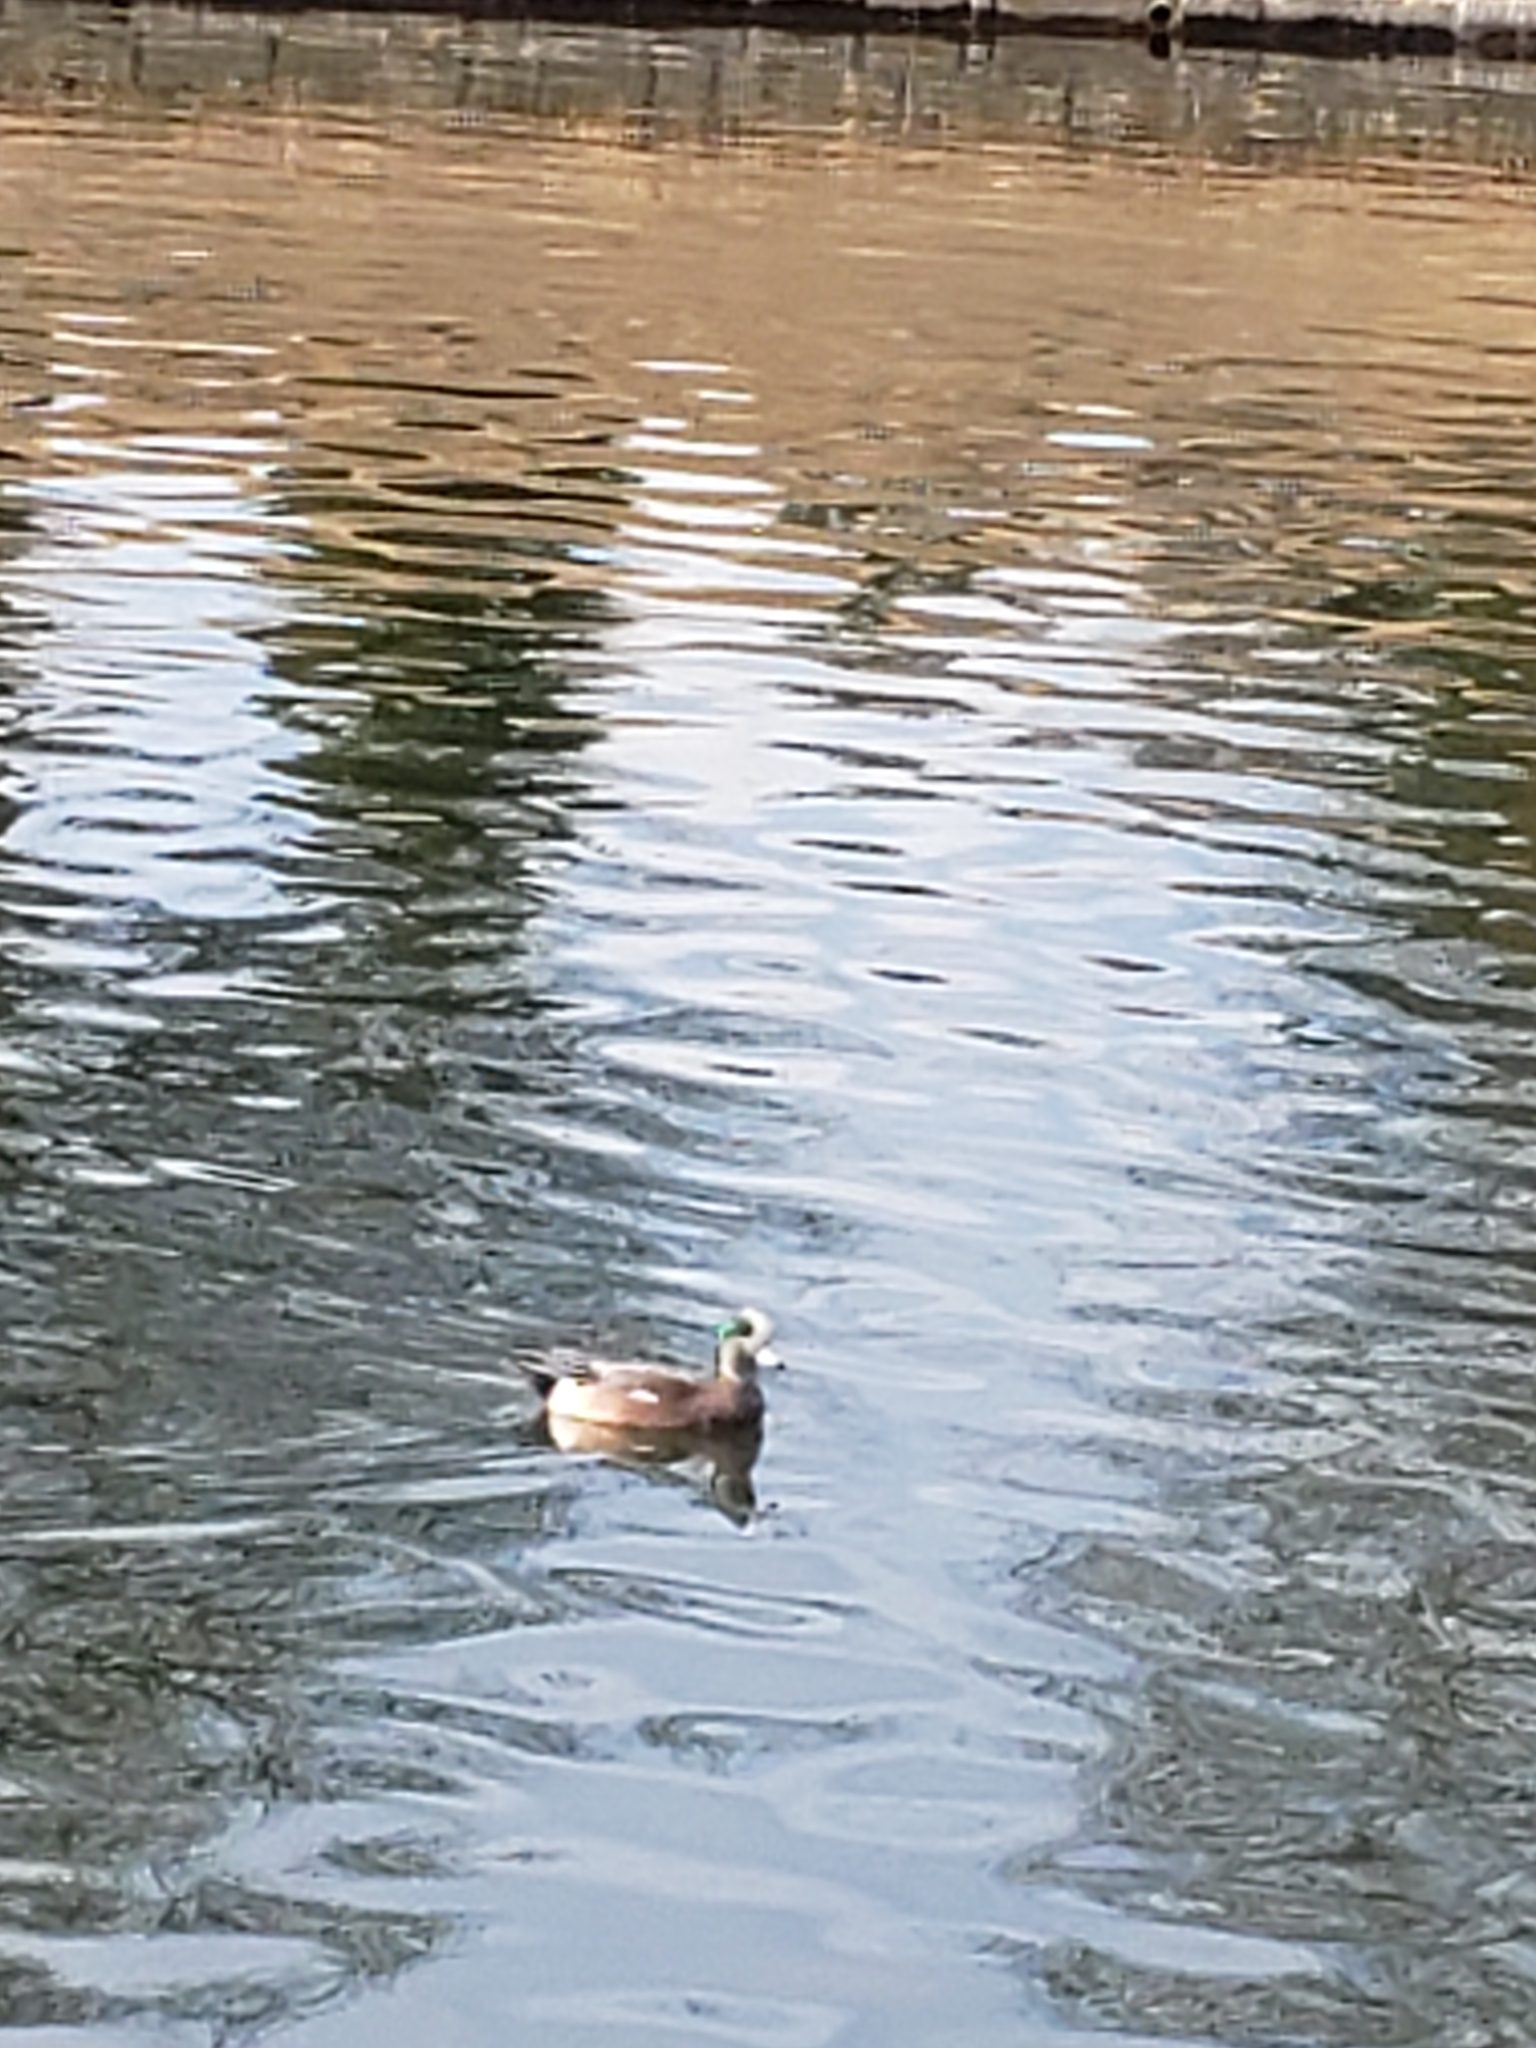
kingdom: Animalia
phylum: Chordata
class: Aves
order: Anseriformes
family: Anatidae
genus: Mareca
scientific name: Mareca americana
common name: American wigeon
